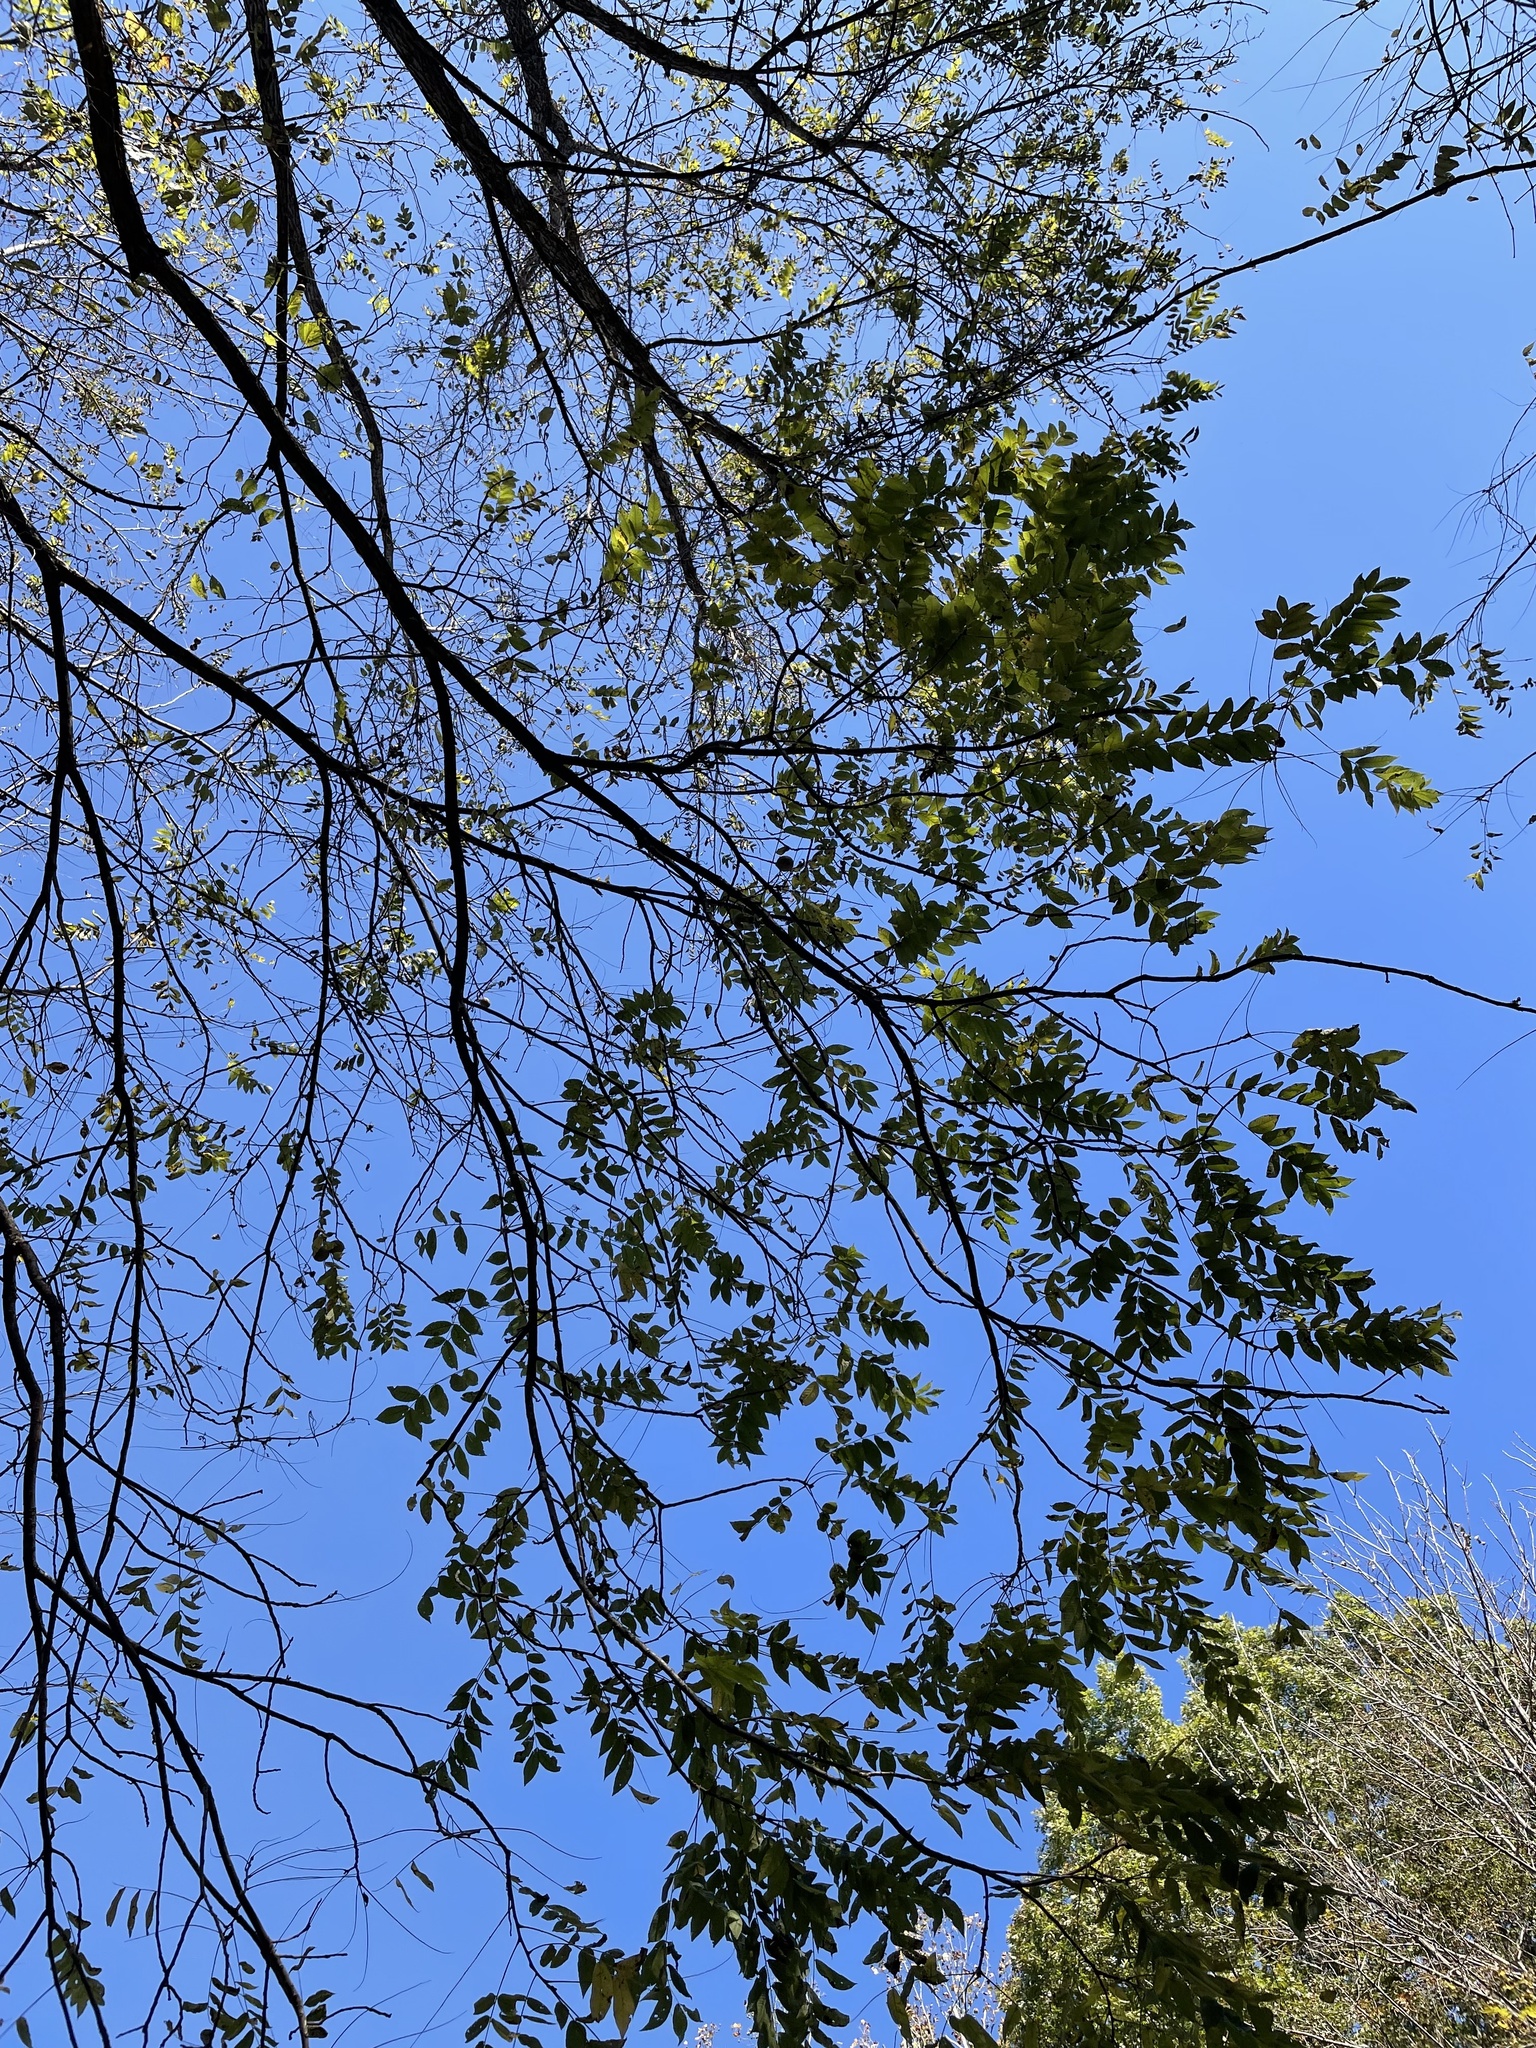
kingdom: Plantae
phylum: Tracheophyta
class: Magnoliopsida
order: Fagales
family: Juglandaceae
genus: Juglans
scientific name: Juglans nigra
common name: Black walnut
